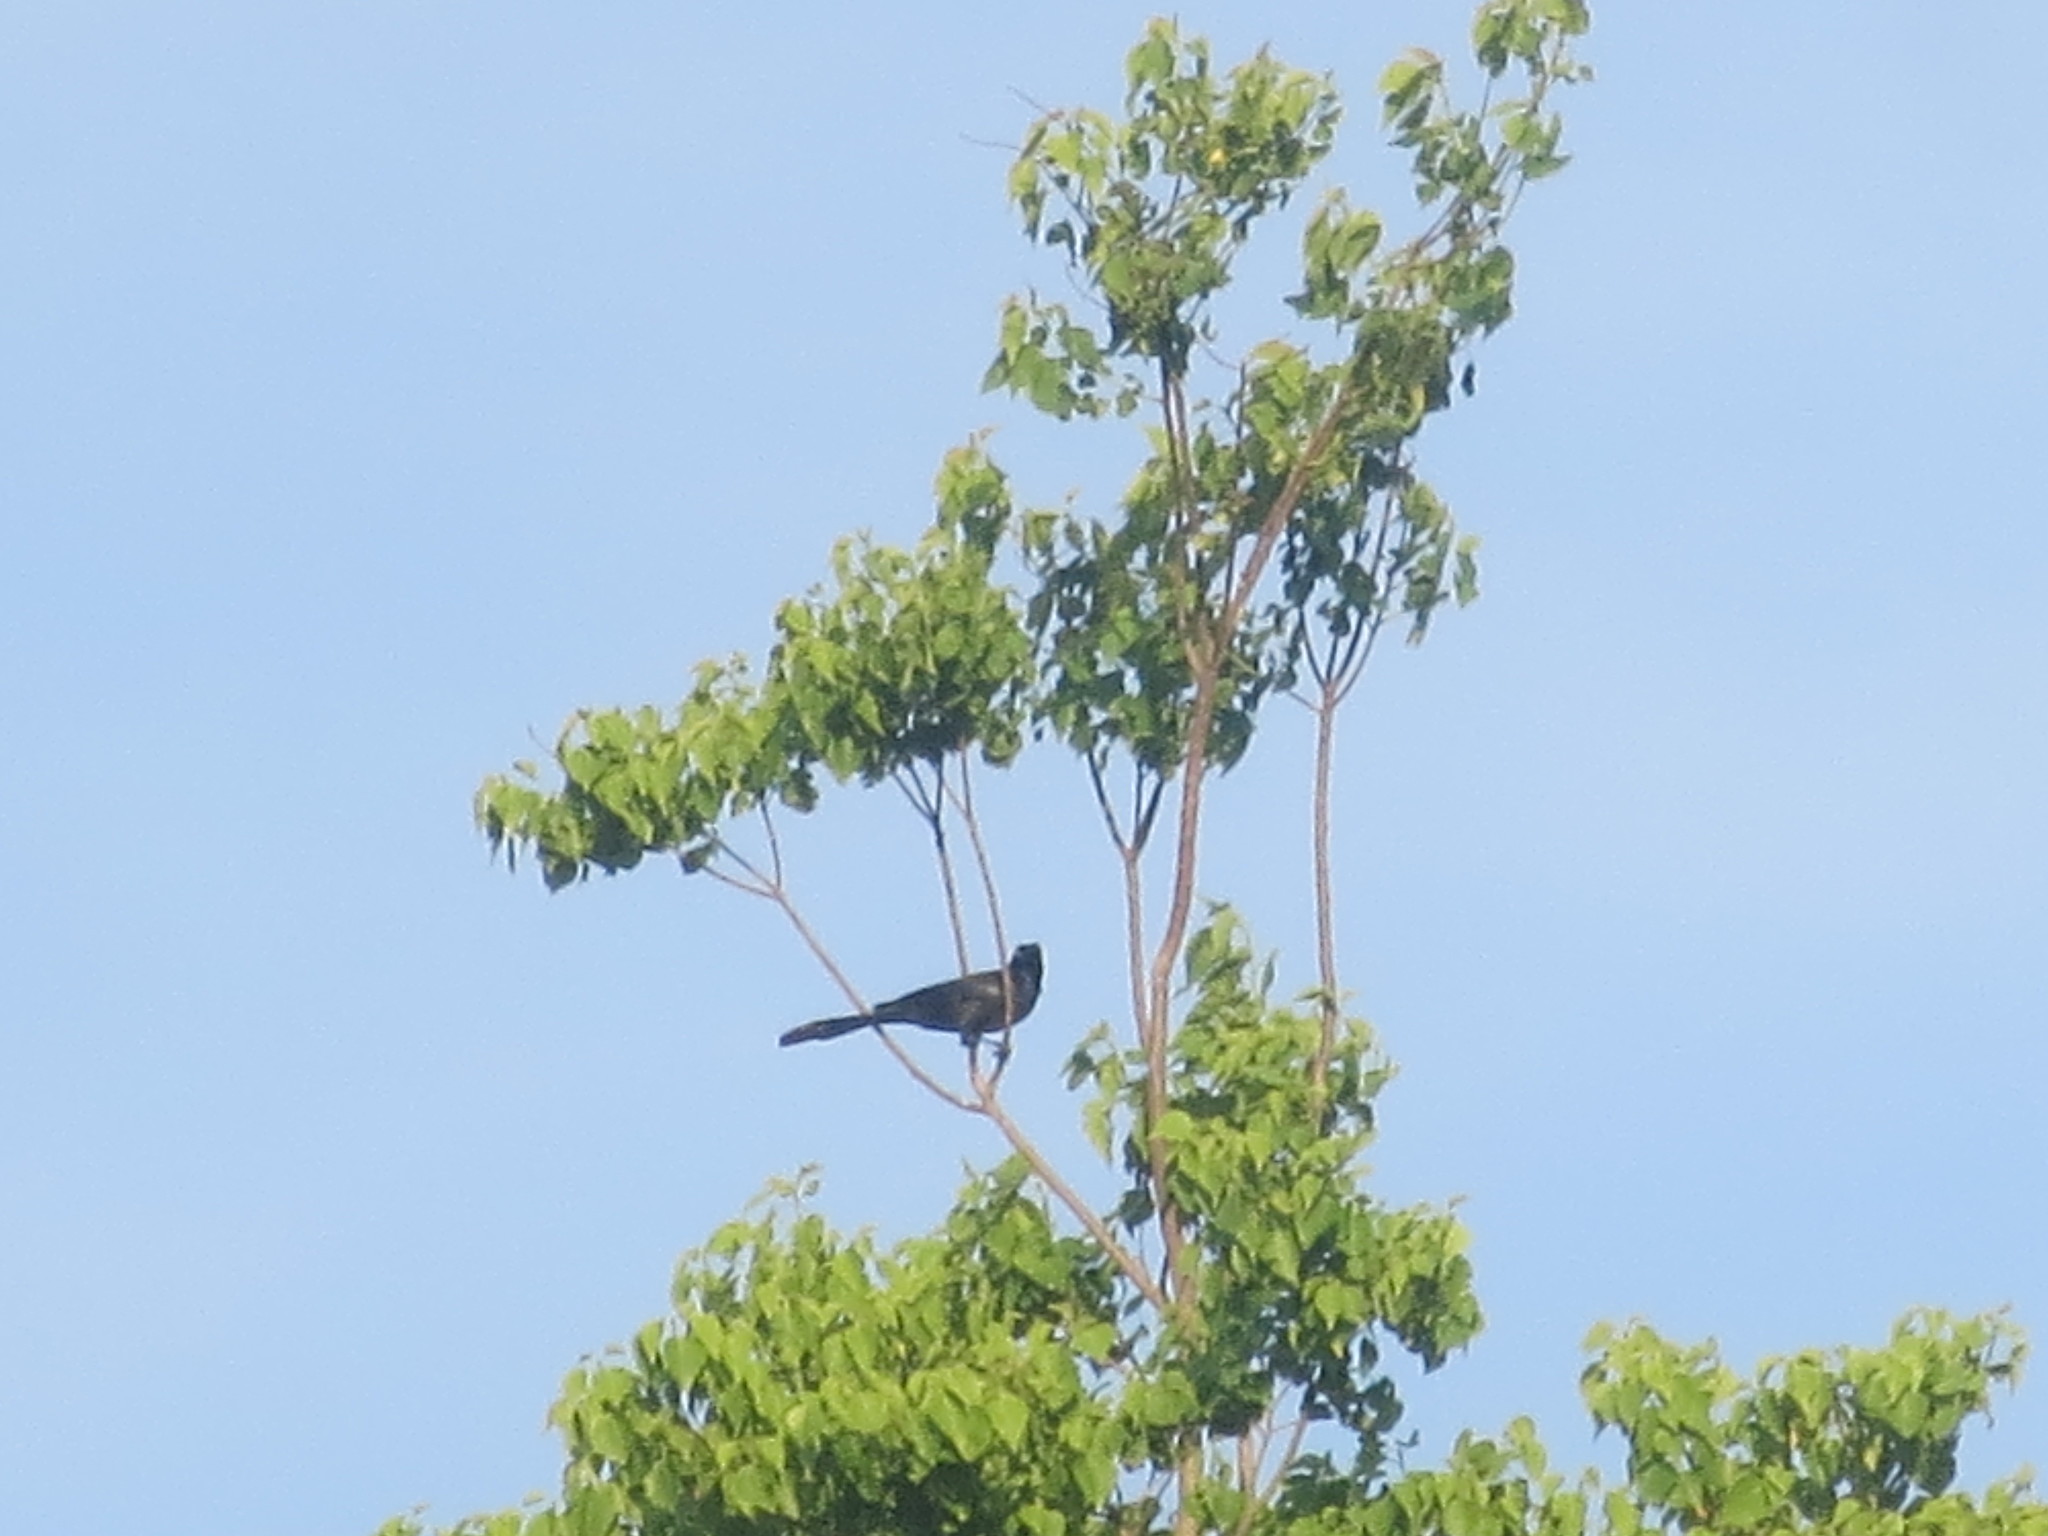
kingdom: Animalia
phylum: Chordata
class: Aves
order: Passeriformes
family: Icteridae
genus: Quiscalus
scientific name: Quiscalus major
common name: Boat-tailed grackle
